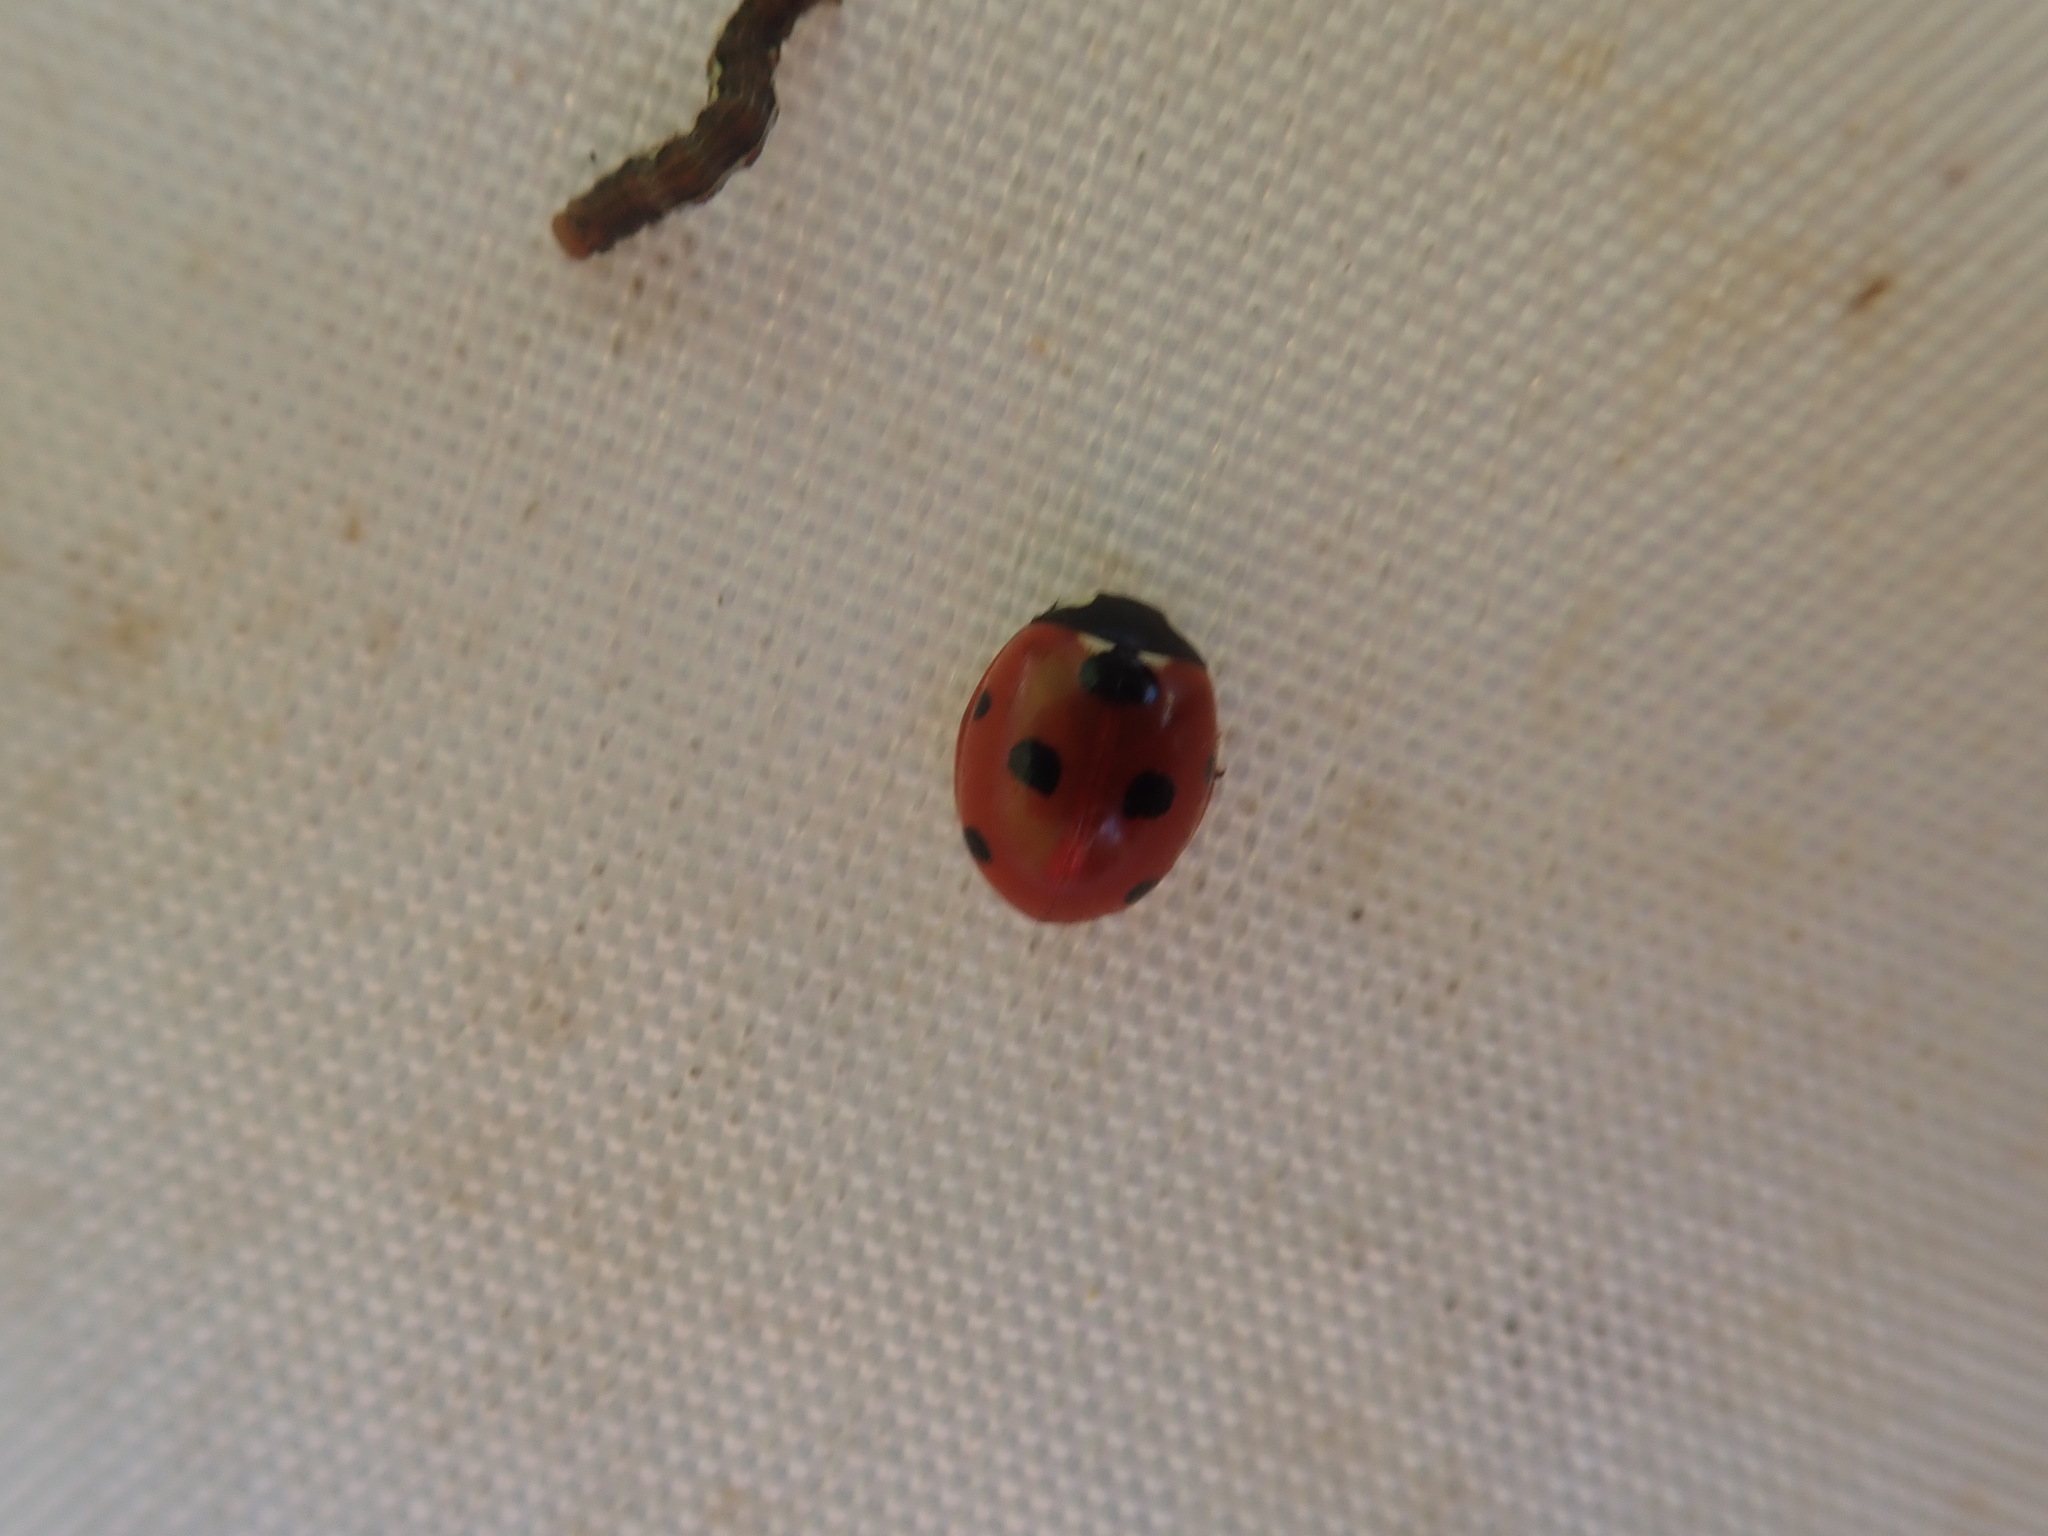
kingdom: Animalia
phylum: Arthropoda
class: Insecta
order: Coleoptera
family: Coccinellidae
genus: Coccinella
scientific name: Coccinella septempunctata
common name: Sevenspotted lady beetle
